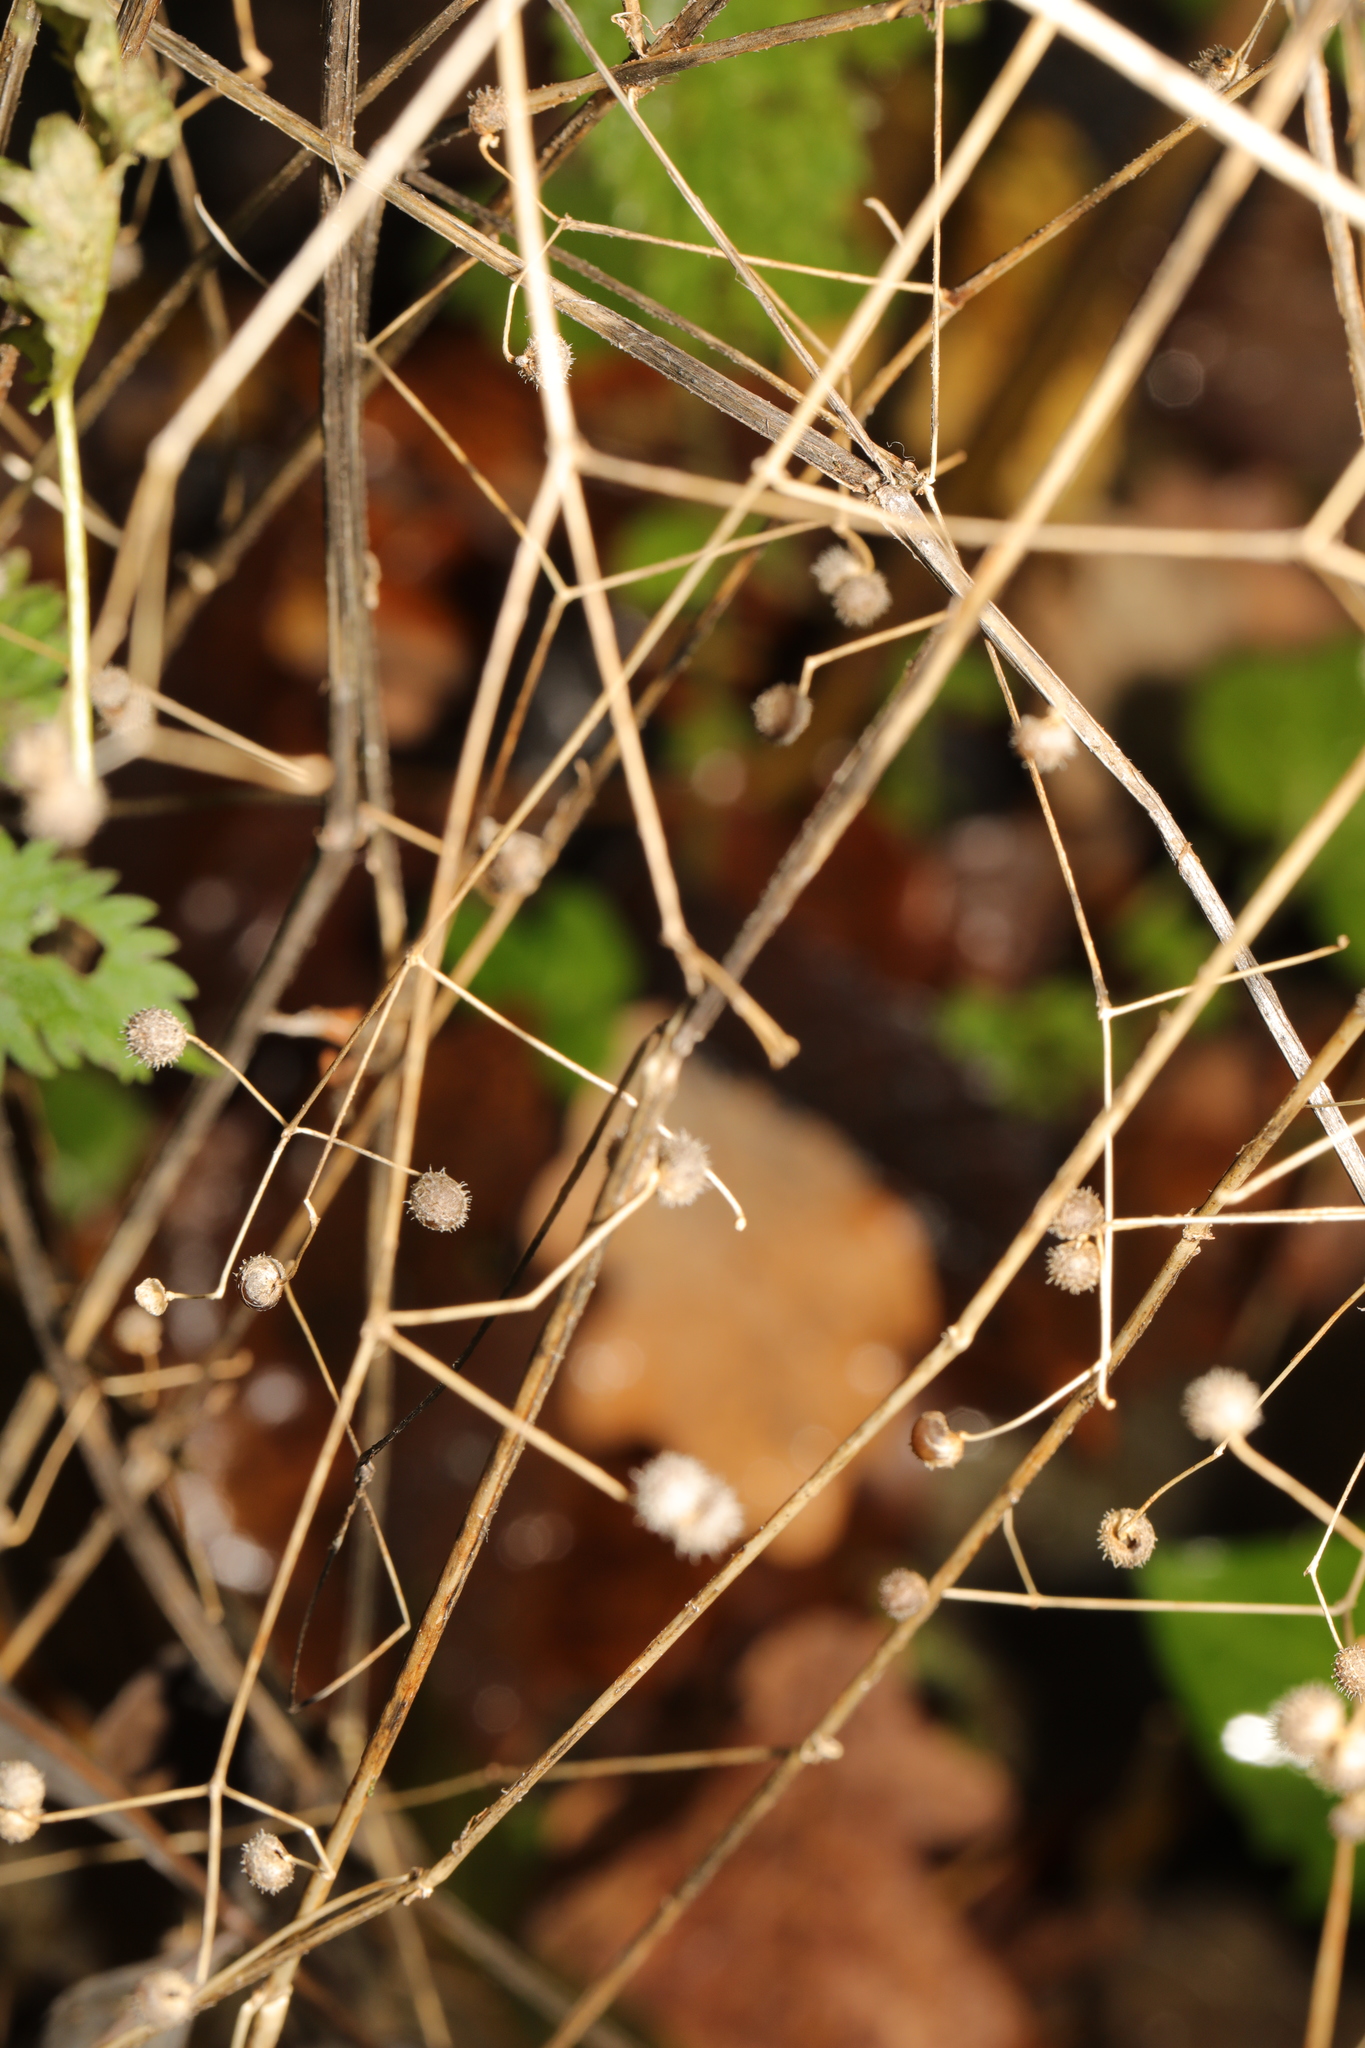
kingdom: Plantae
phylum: Tracheophyta
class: Magnoliopsida
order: Gentianales
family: Rubiaceae
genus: Galium
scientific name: Galium aparine
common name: Cleavers
